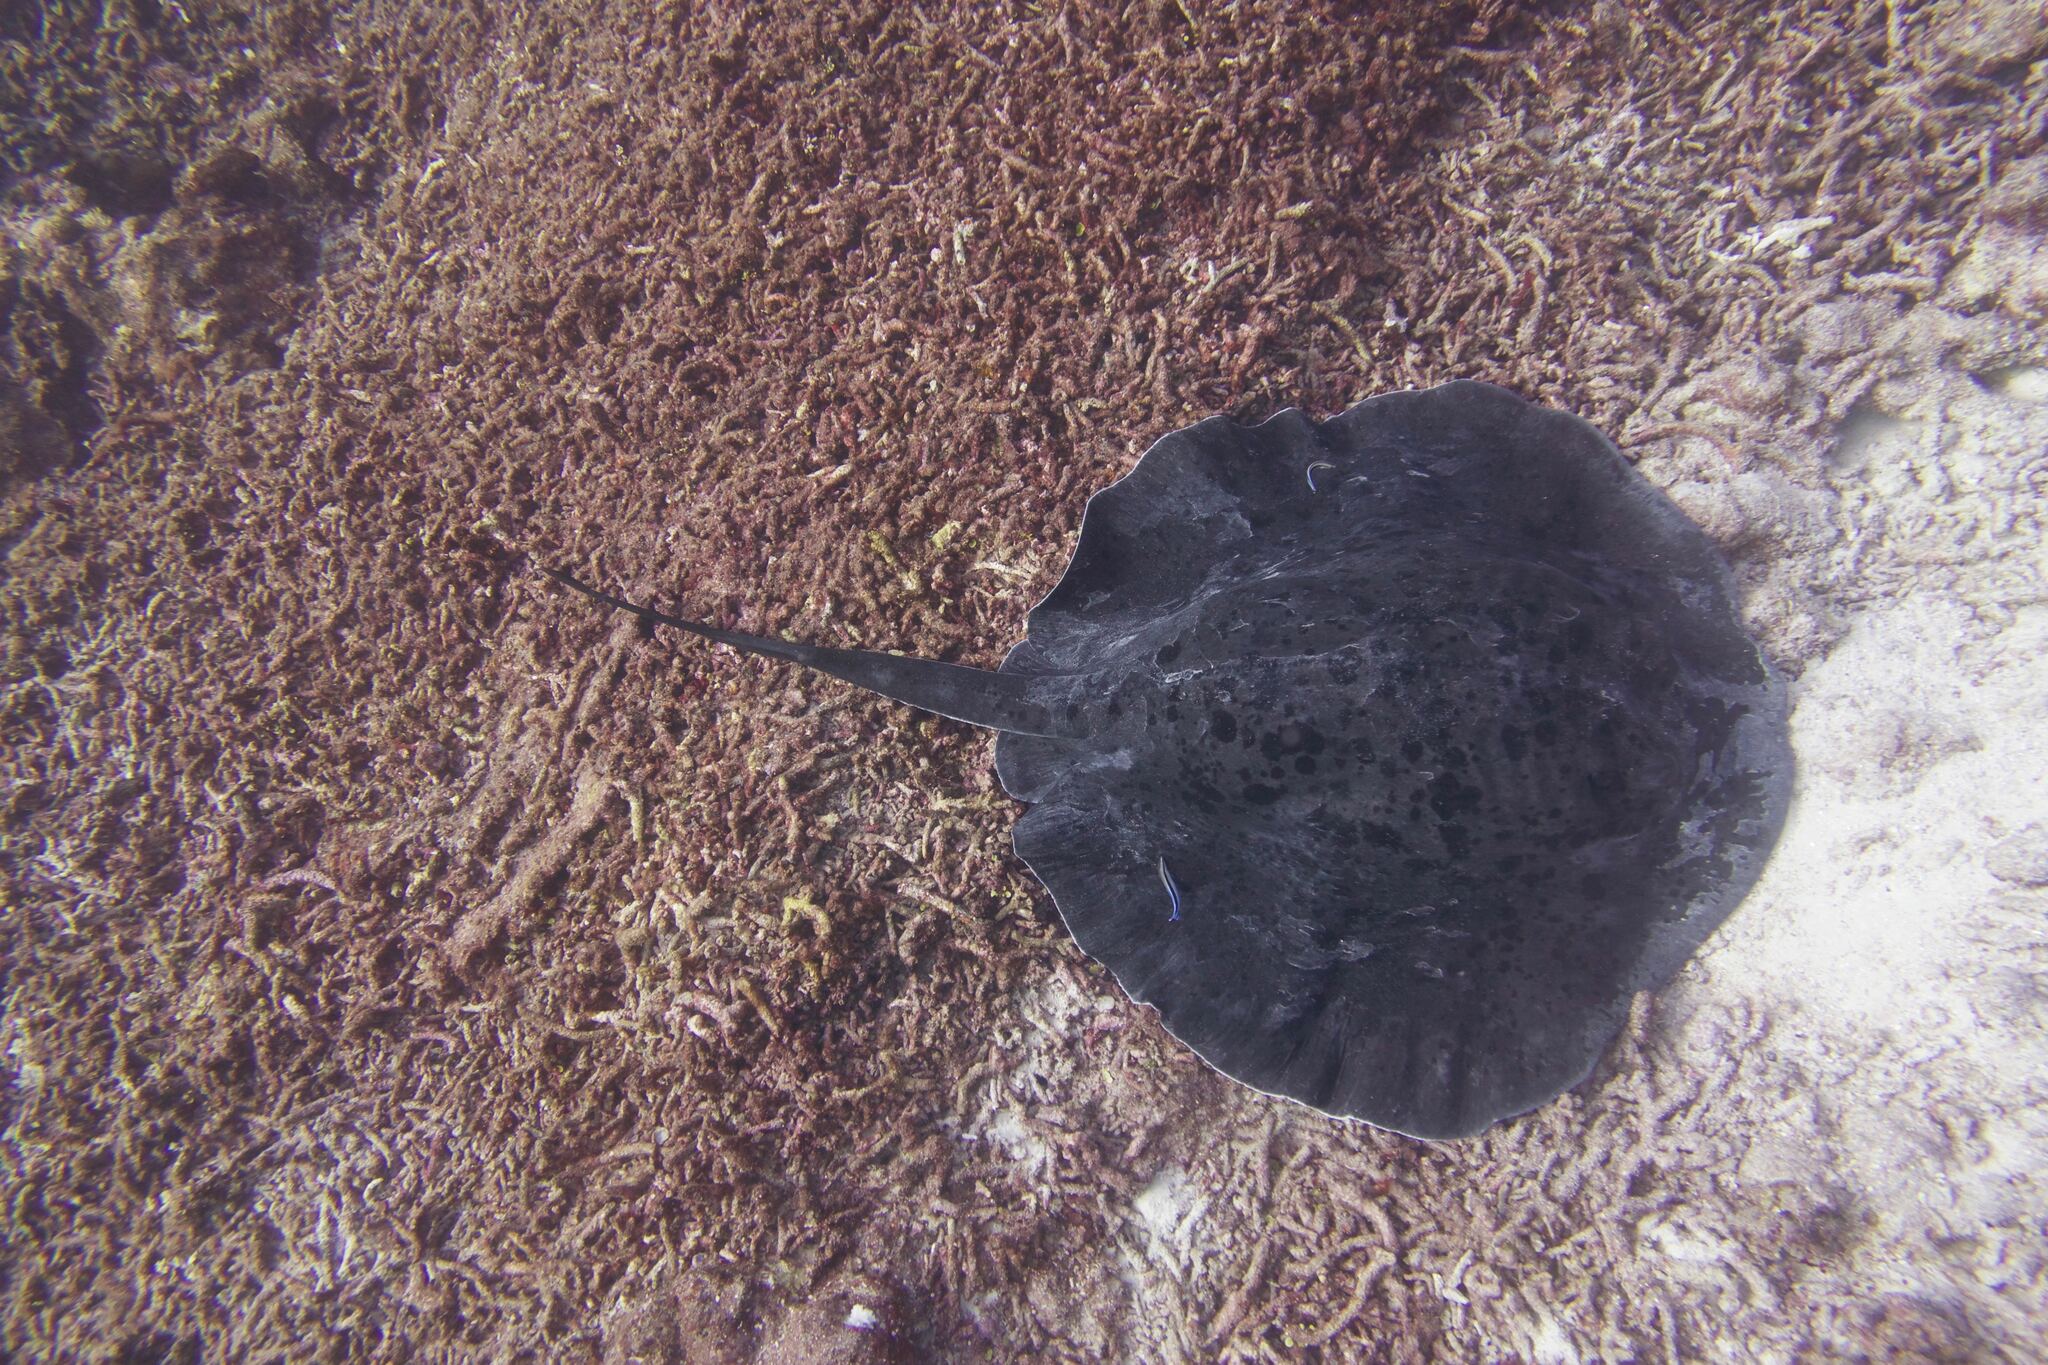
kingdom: Animalia
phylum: Chordata
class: Elasmobranchii
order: Myliobatiformes
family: Dasyatidae
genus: Taeniurops
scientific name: Taeniurops meyeni
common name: Black-blotched stingray
